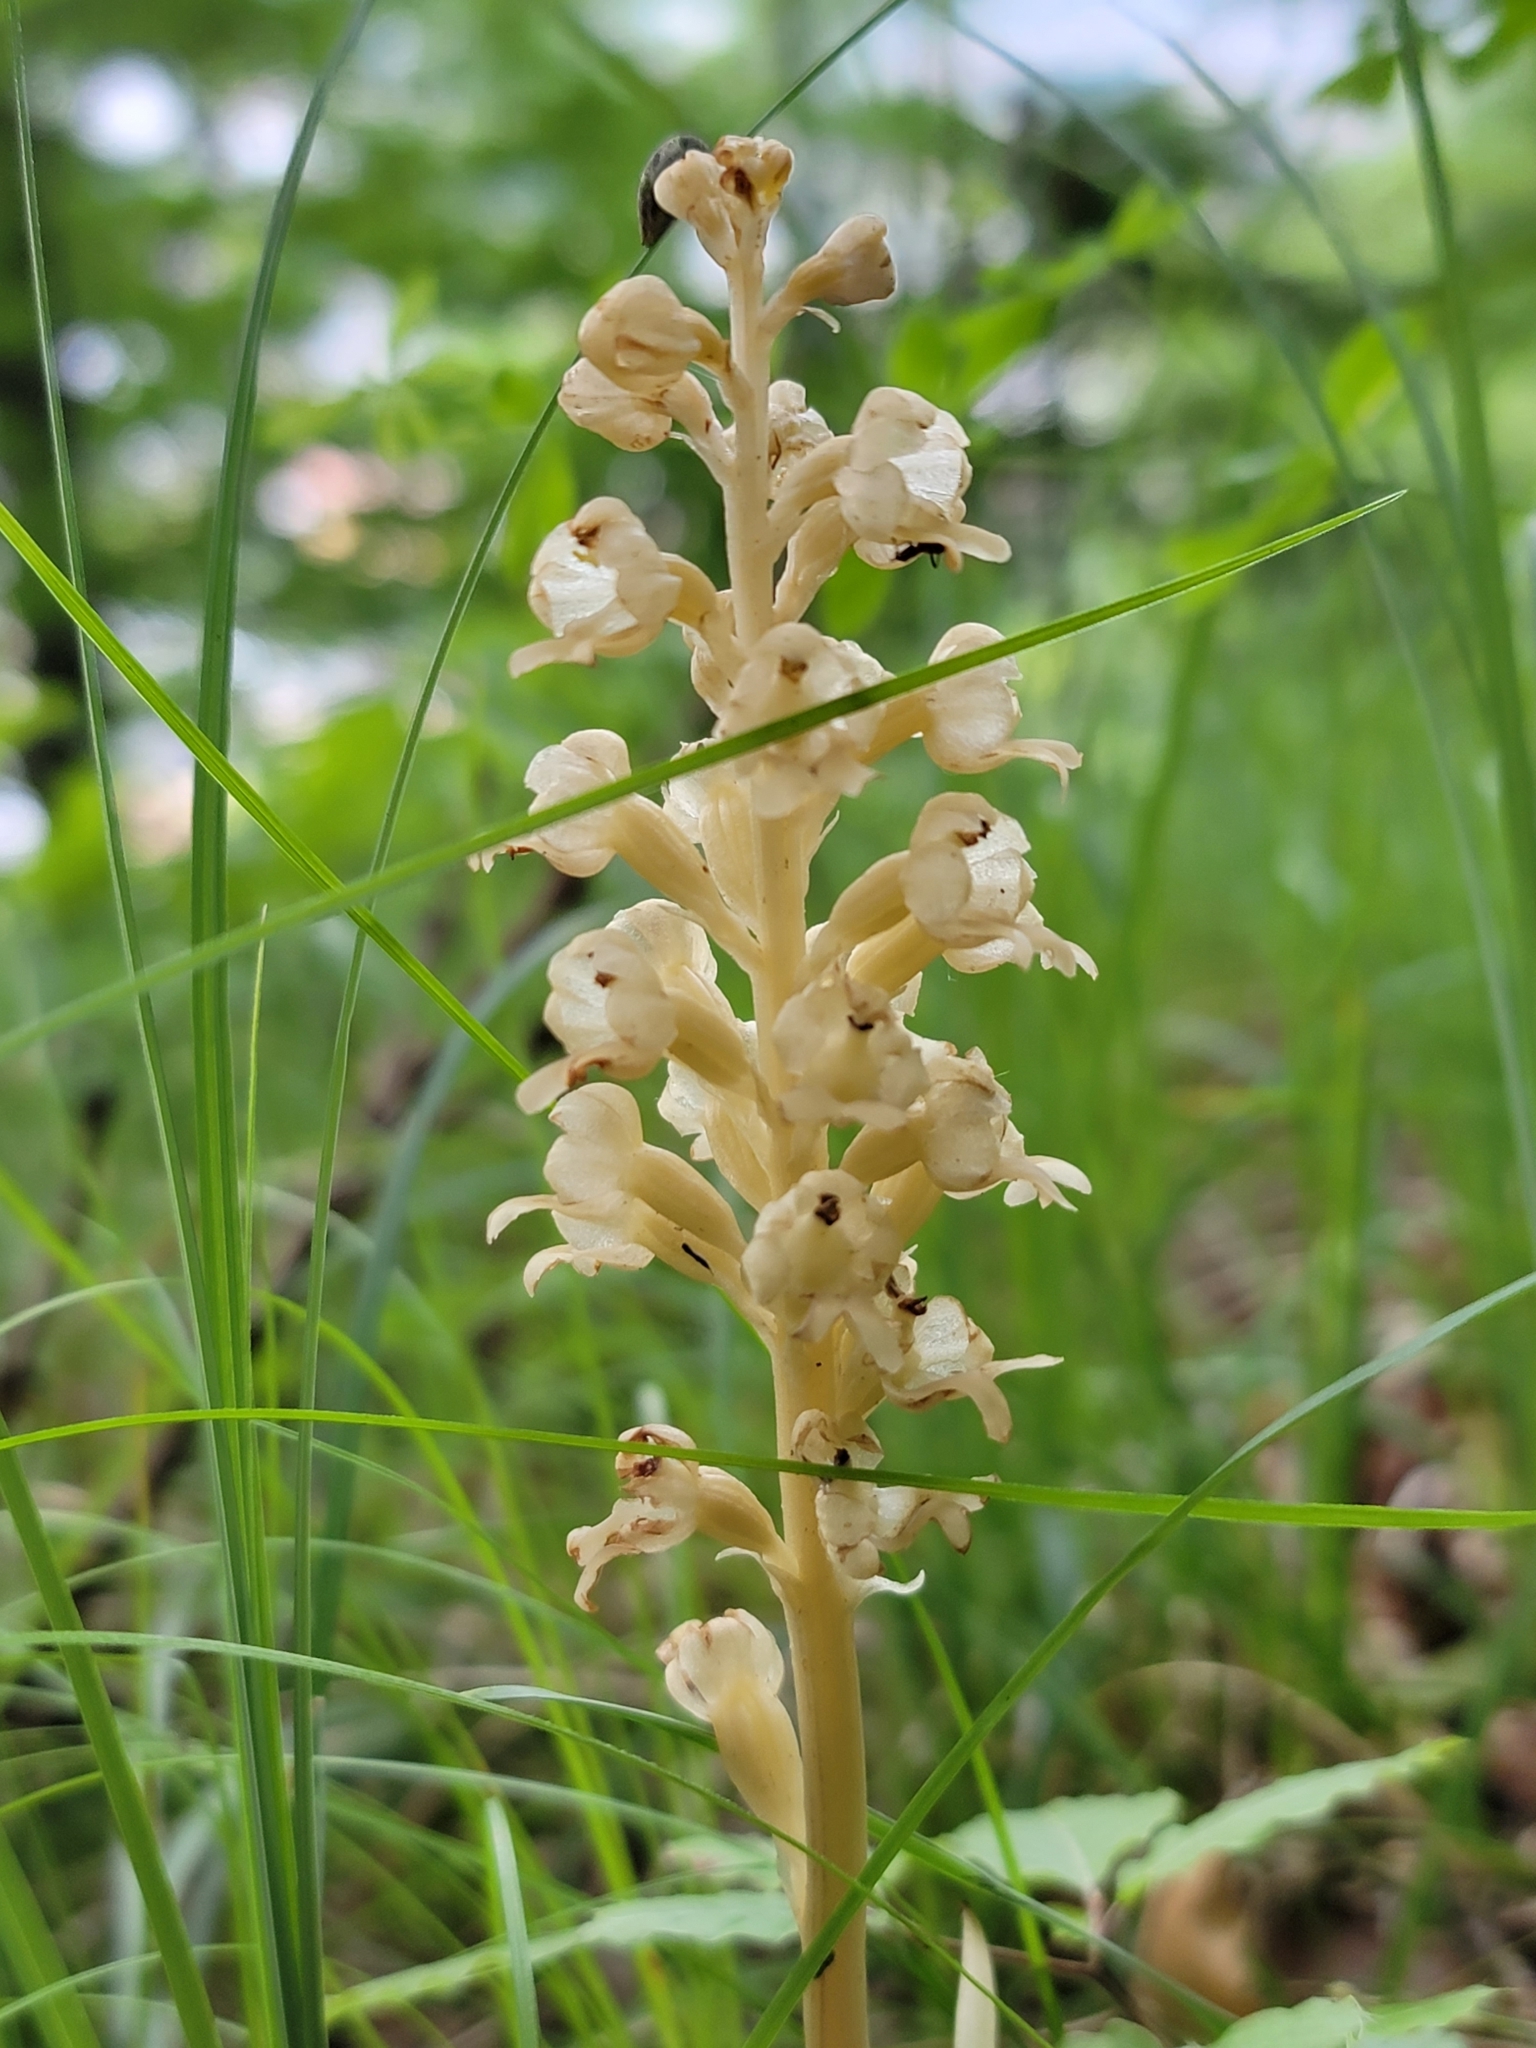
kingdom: Plantae
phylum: Tracheophyta
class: Liliopsida
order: Asparagales
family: Orchidaceae
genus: Neottia
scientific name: Neottia nidus-avis
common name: Bird's-nest orchid
